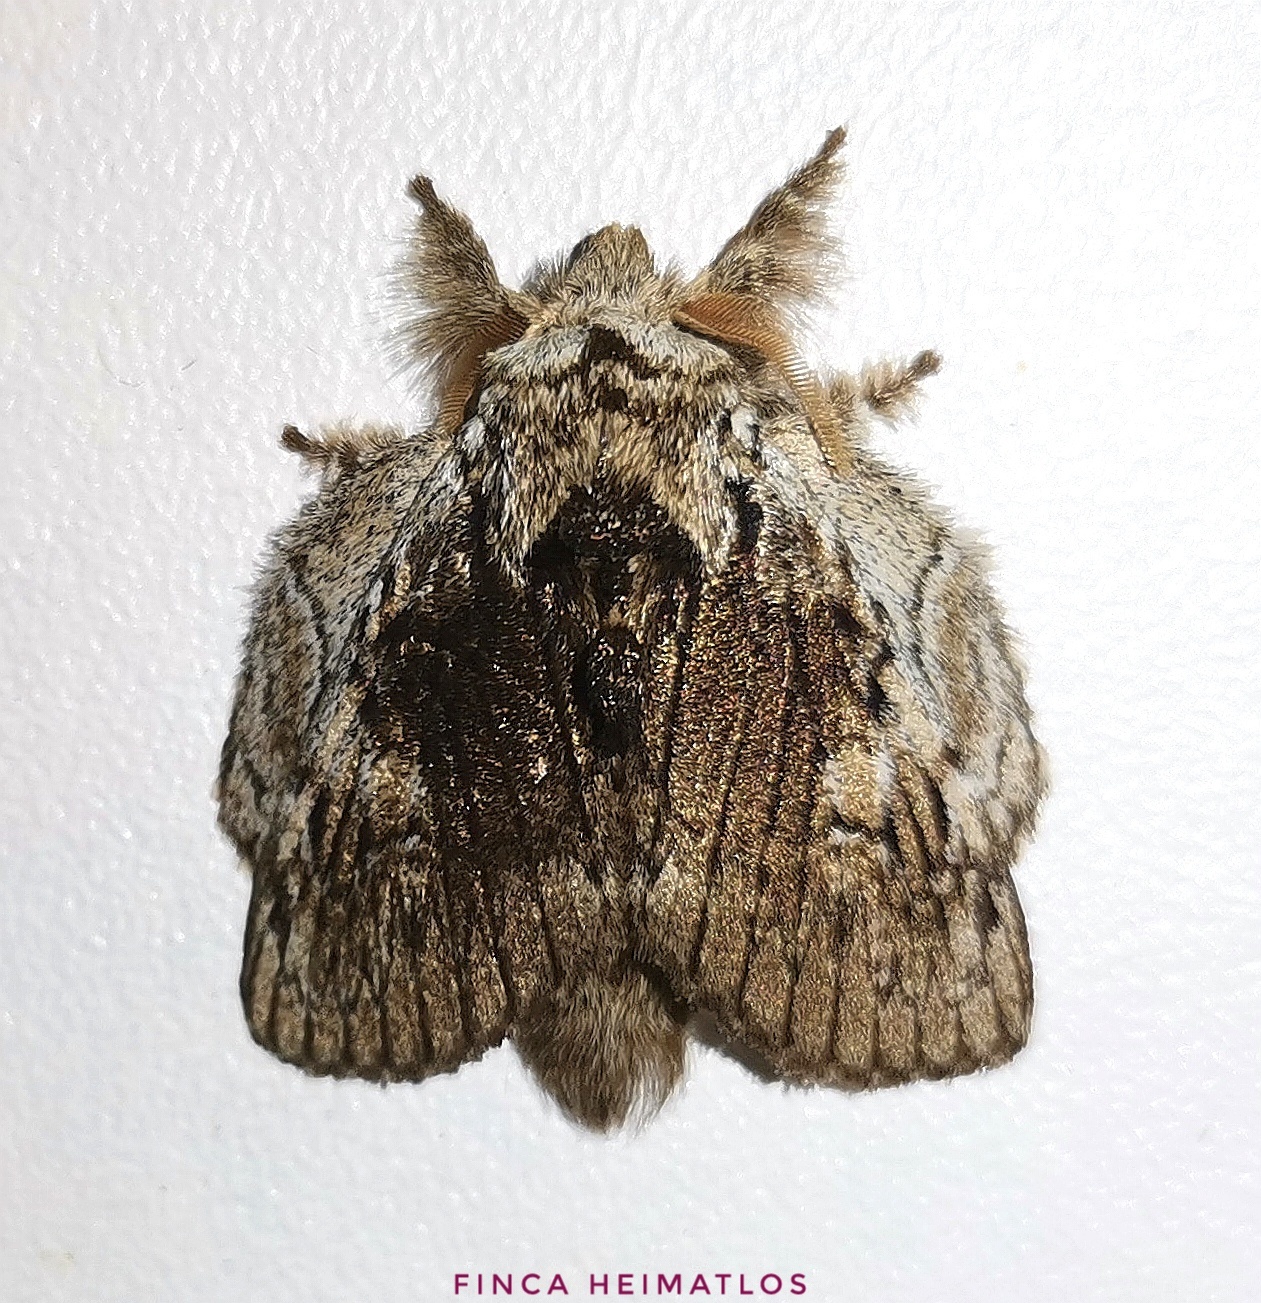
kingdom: Animalia
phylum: Arthropoda
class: Insecta
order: Lepidoptera
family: Lasiocampidae
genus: Euglyphis
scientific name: Euglyphis lascoria
